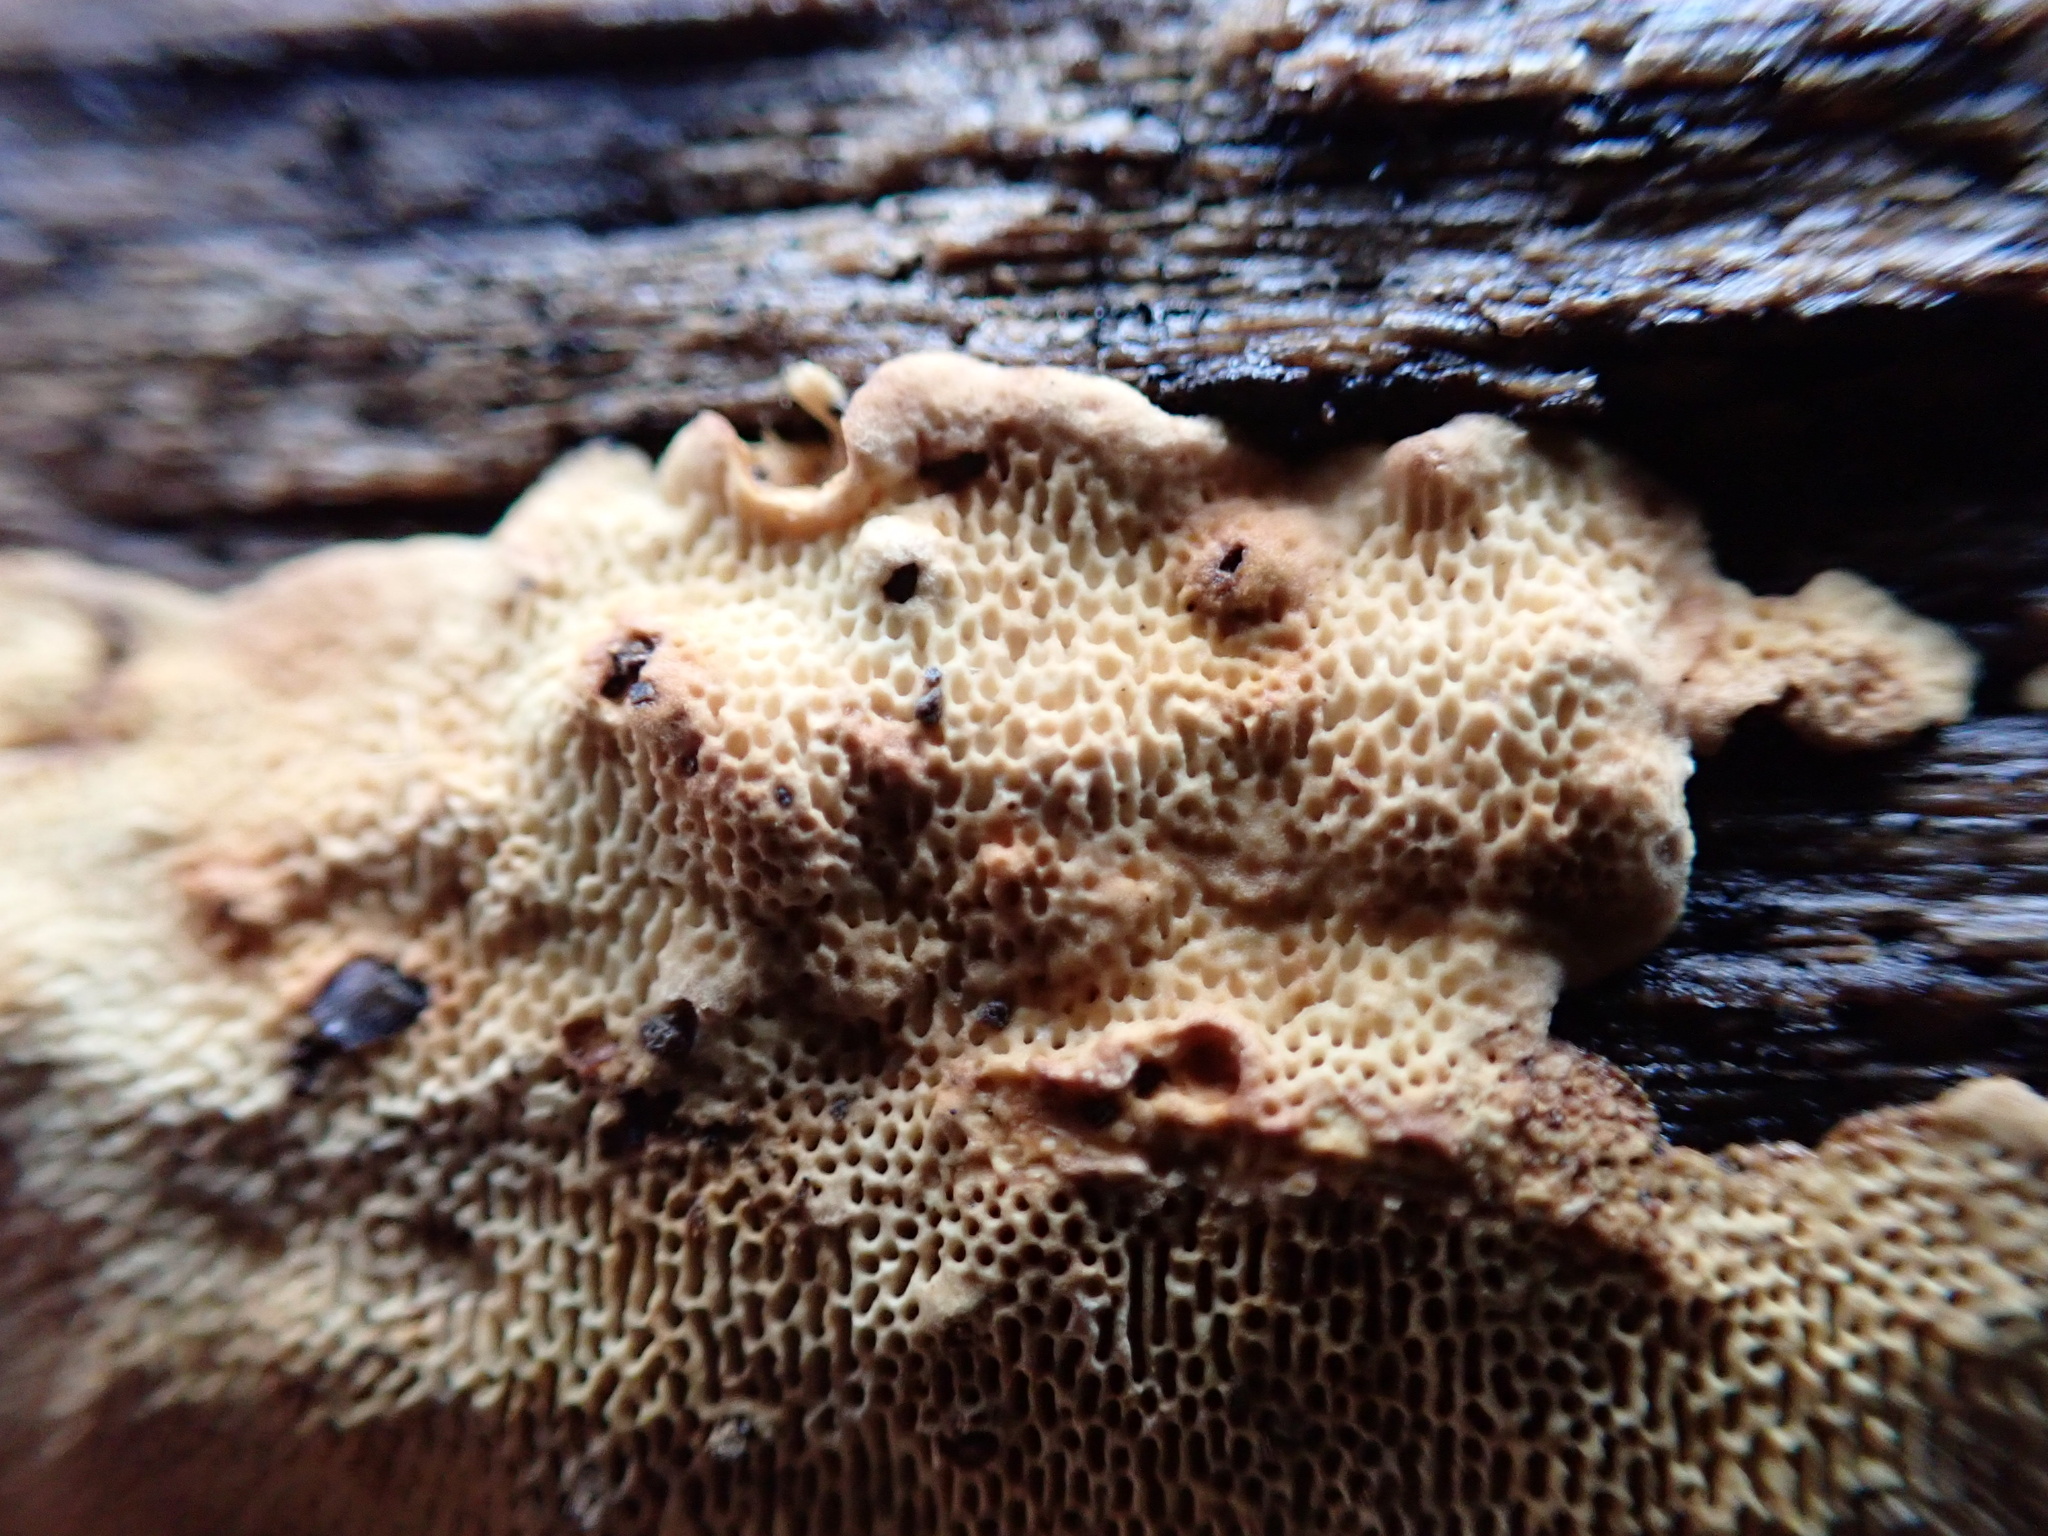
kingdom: Fungi
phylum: Basidiomycota
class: Agaricomycetes
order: Polyporales
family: Meripilaceae
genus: Rigidoporus
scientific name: Rigidoporus crocatus
